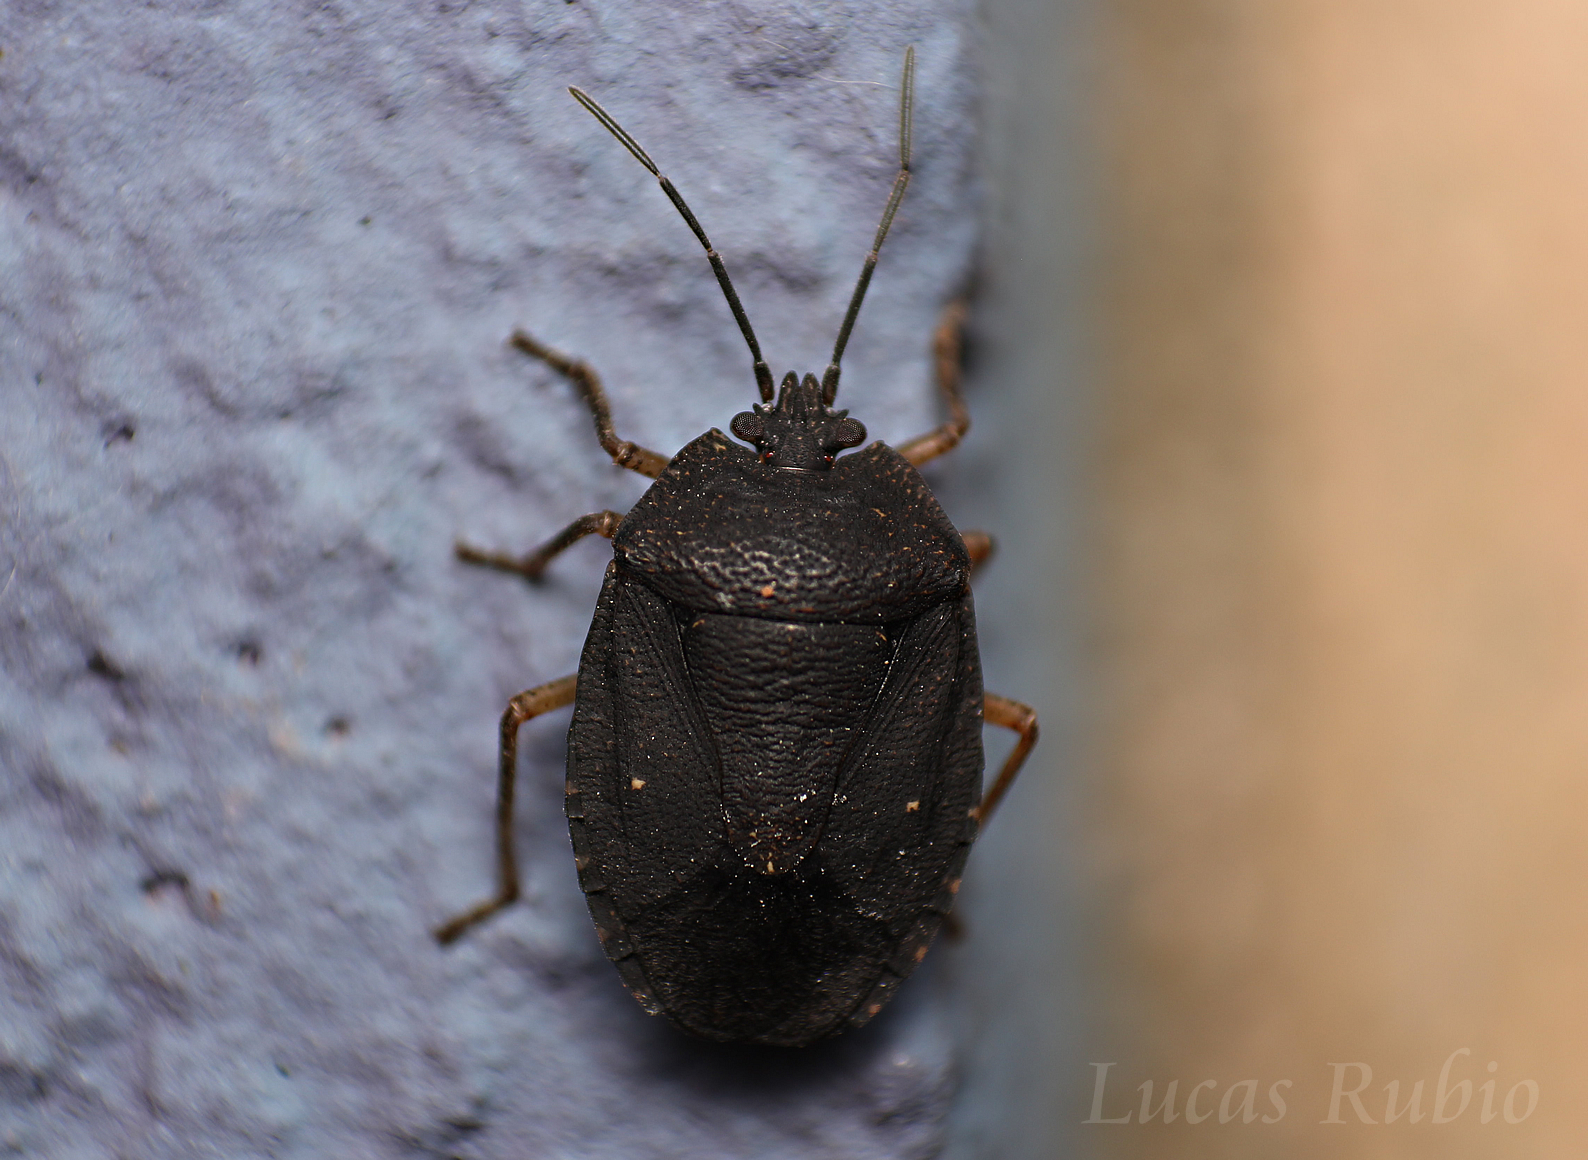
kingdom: Animalia
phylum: Arthropoda
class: Insecta
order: Hemiptera
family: Pentatomidae
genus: Macropygium
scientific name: Macropygium graziae
